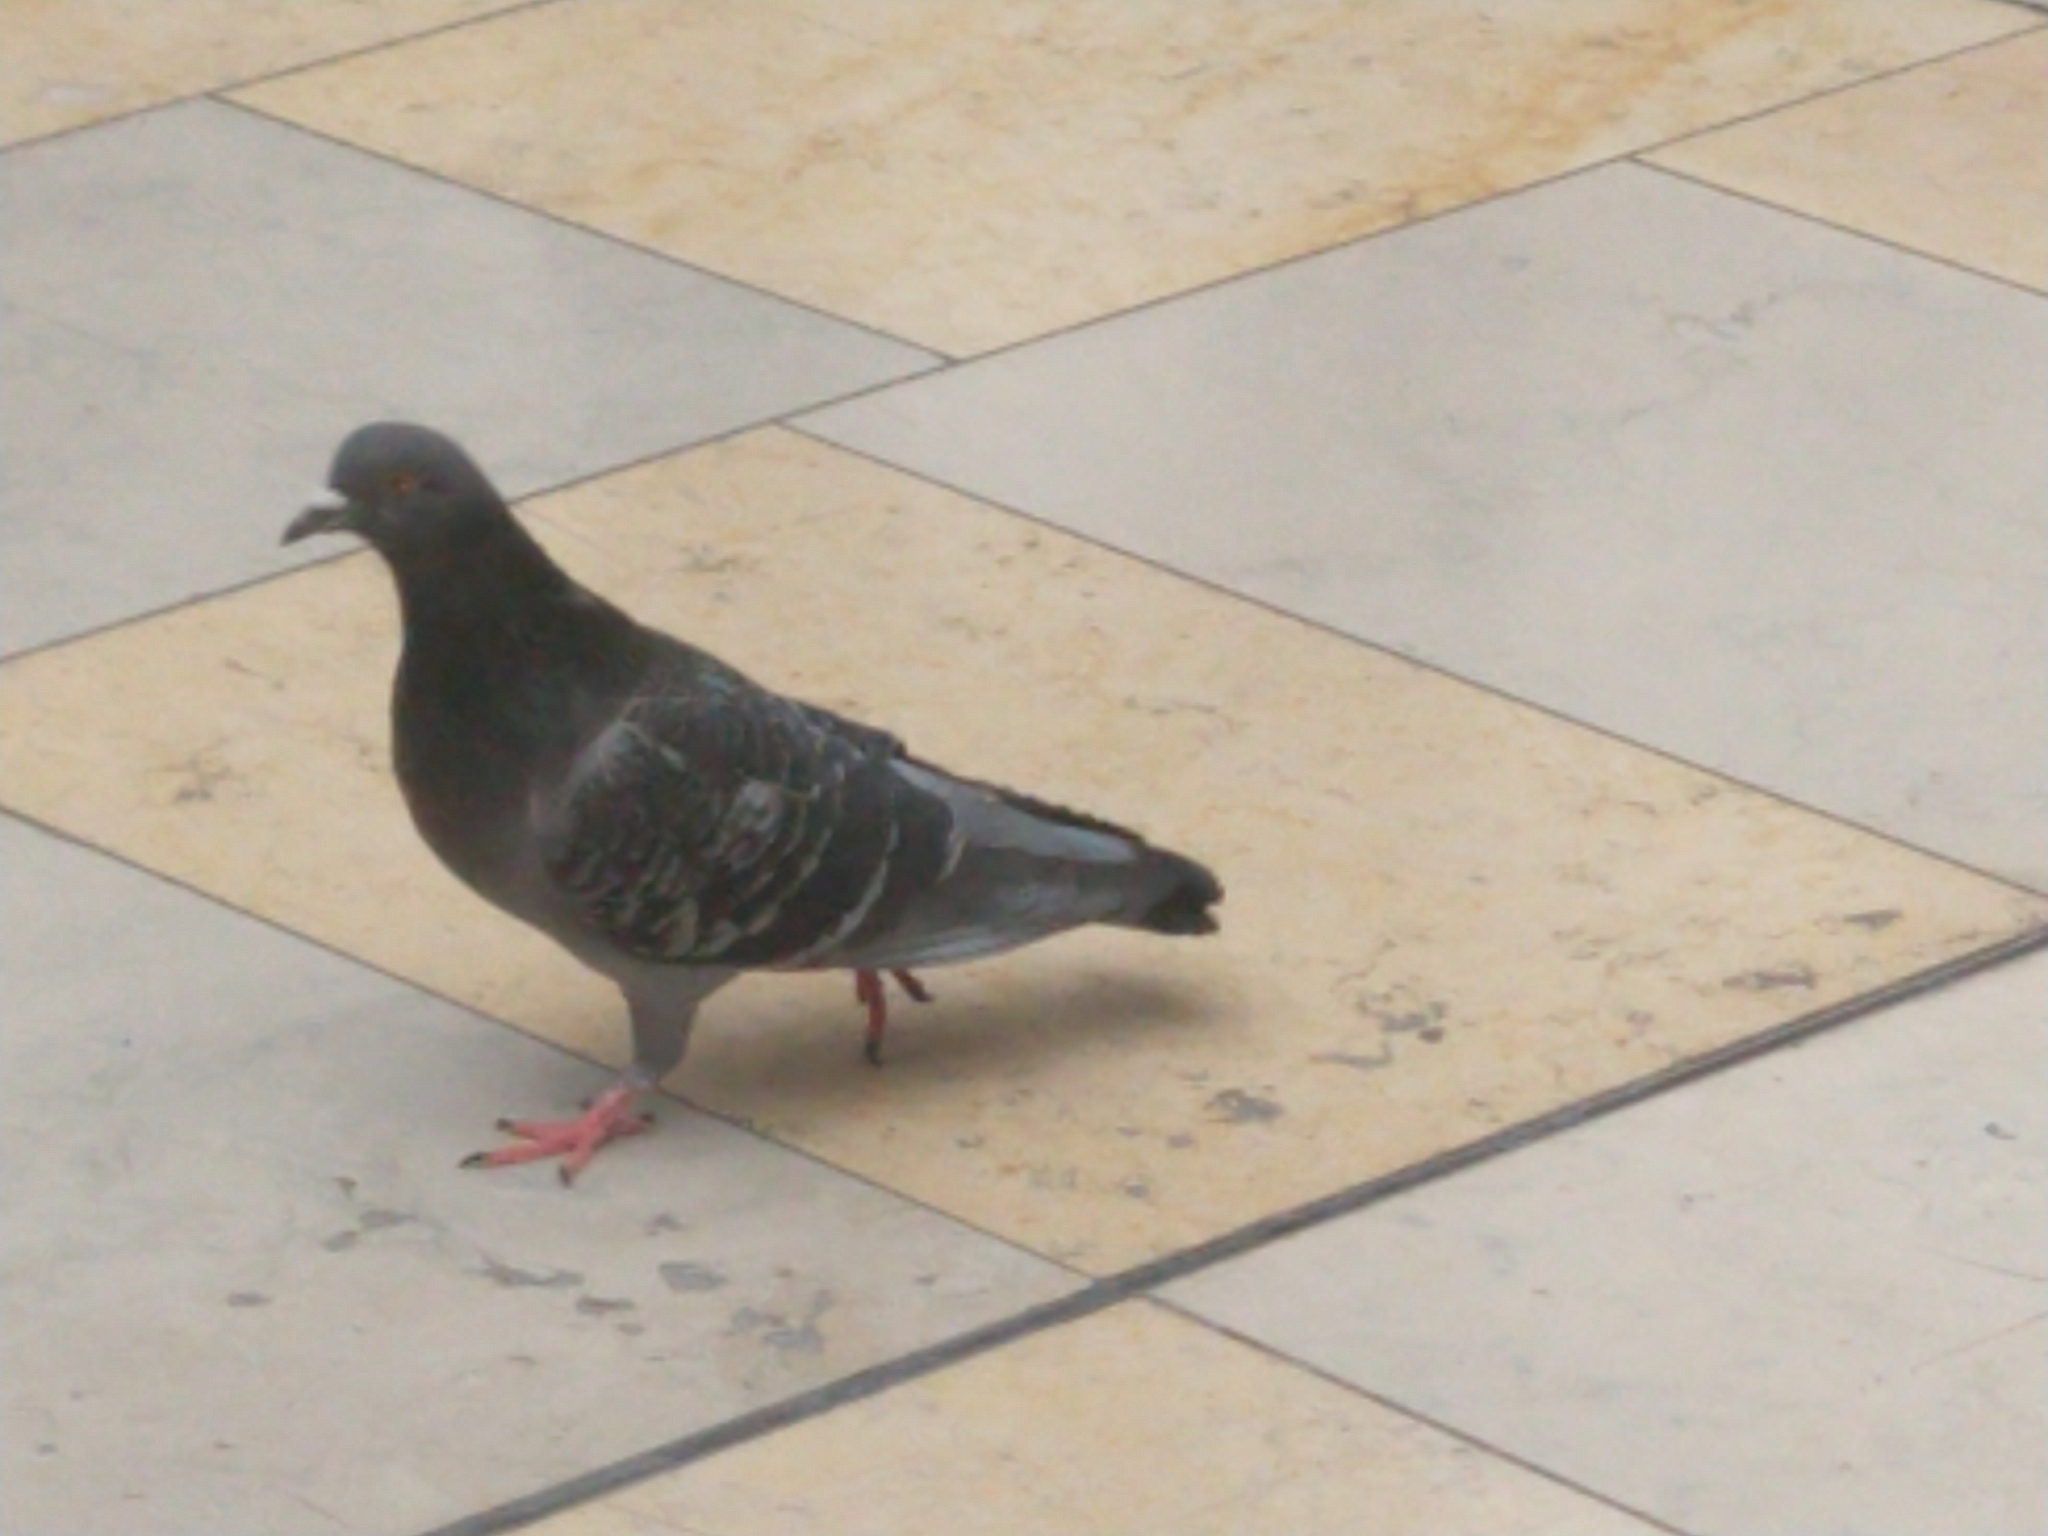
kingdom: Animalia
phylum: Chordata
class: Aves
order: Columbiformes
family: Columbidae
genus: Columba
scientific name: Columba livia
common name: Rock pigeon
